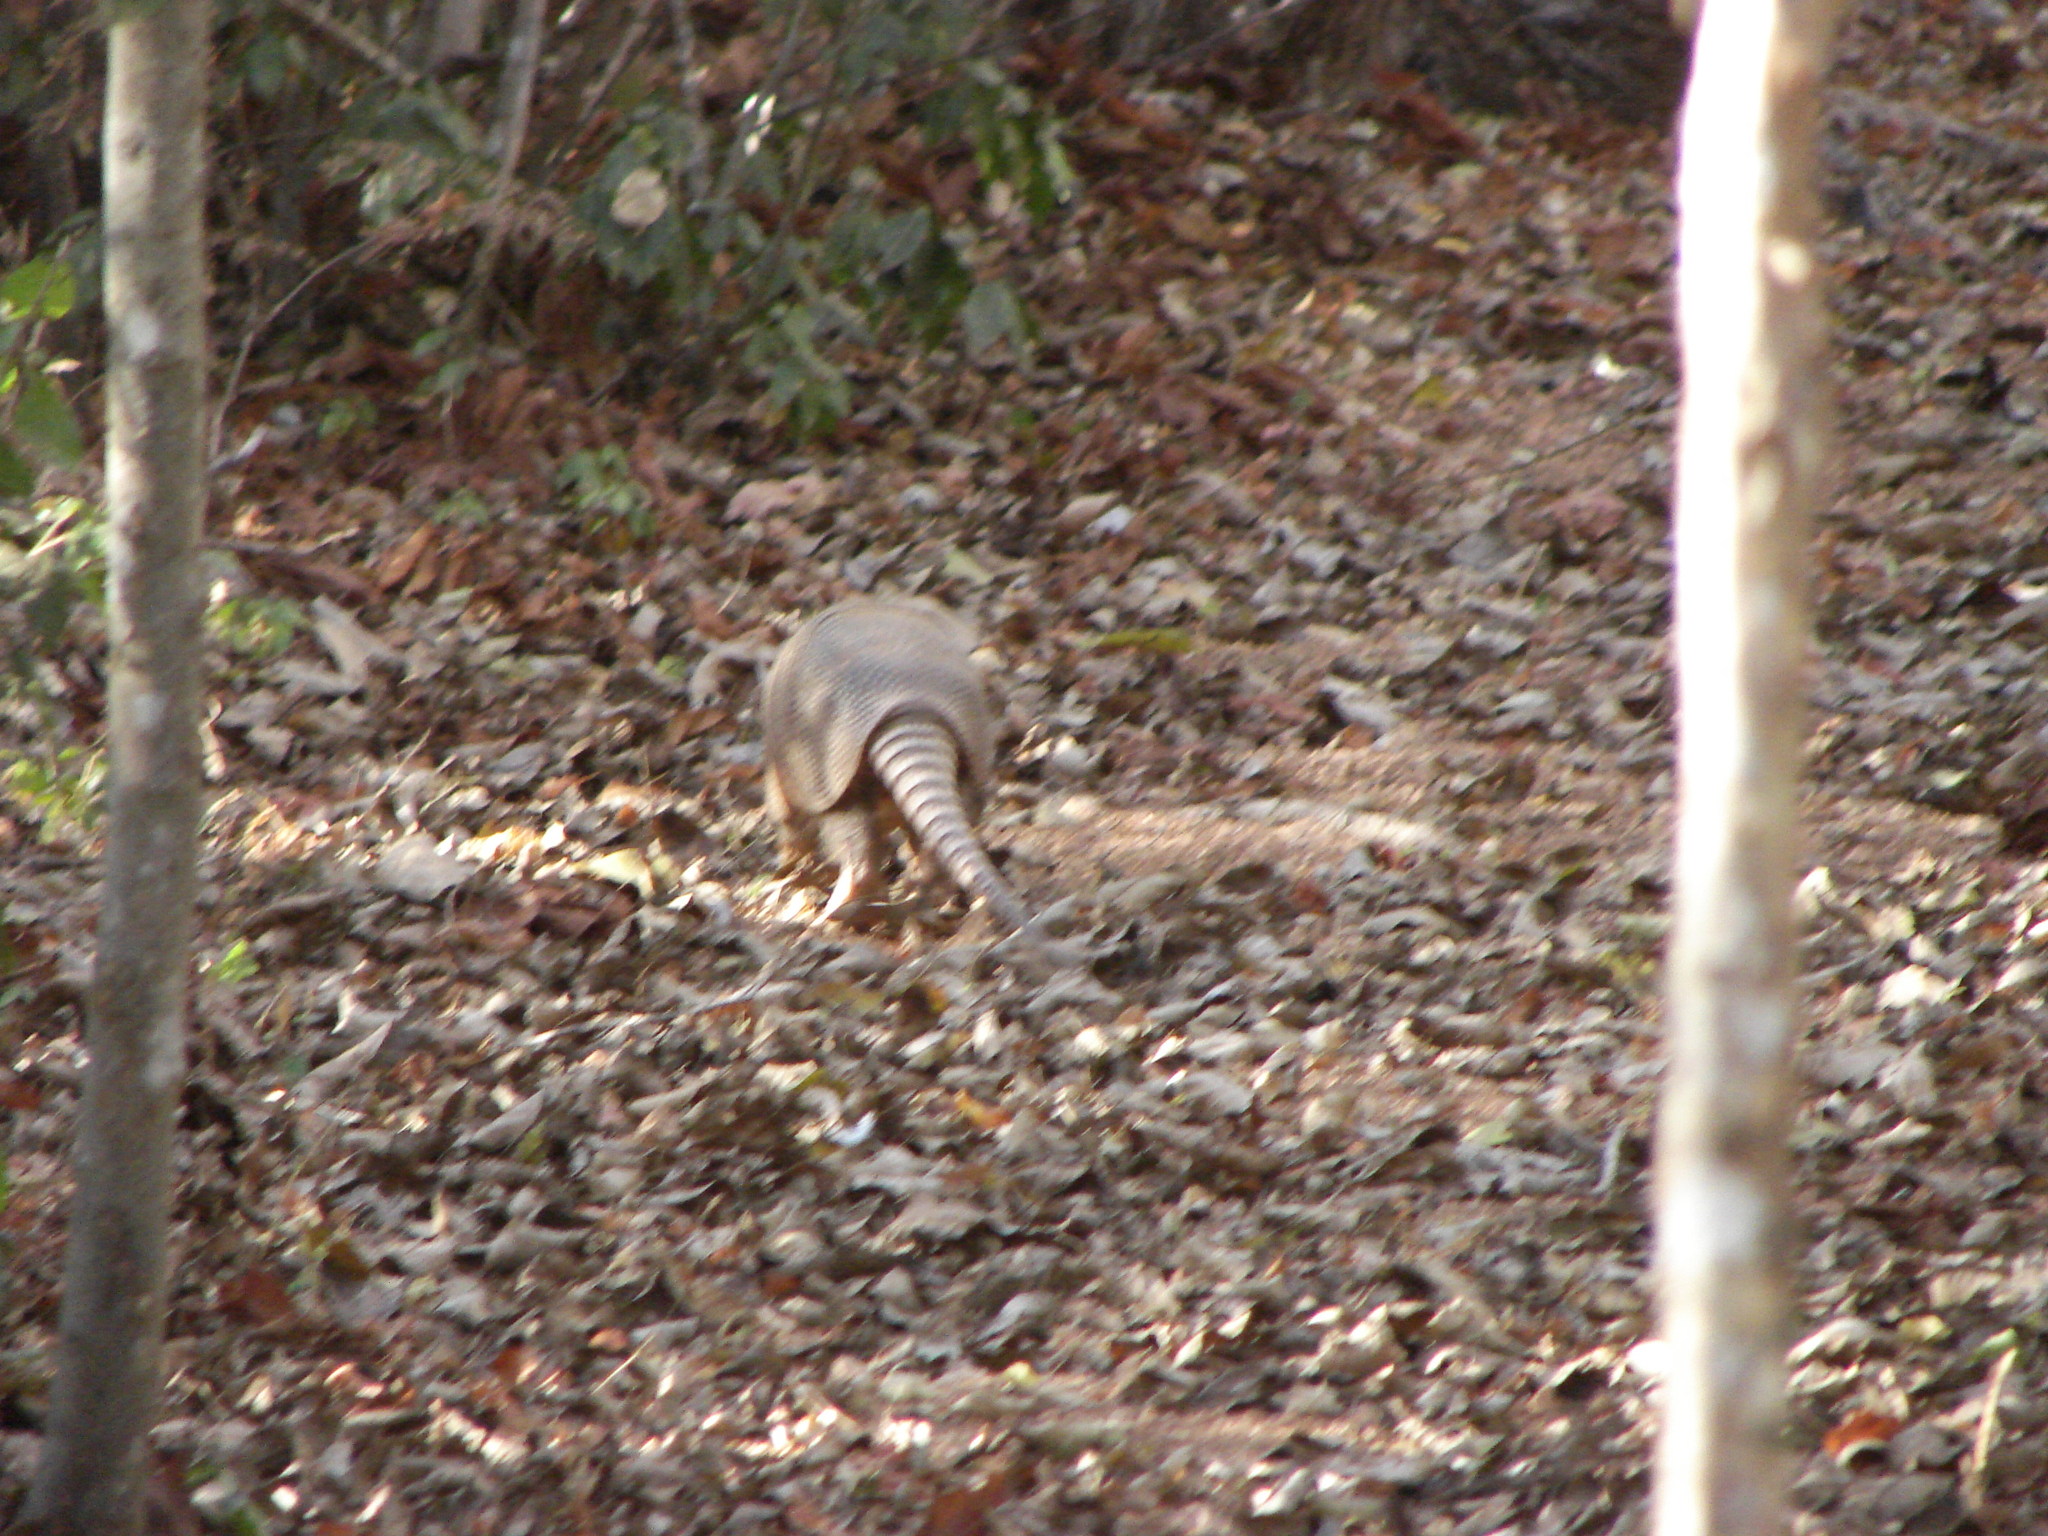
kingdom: Animalia
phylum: Chordata
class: Mammalia
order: Cingulata
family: Dasypodidae
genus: Dasypus
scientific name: Dasypus novemcinctus
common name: Nine-banded armadillo
